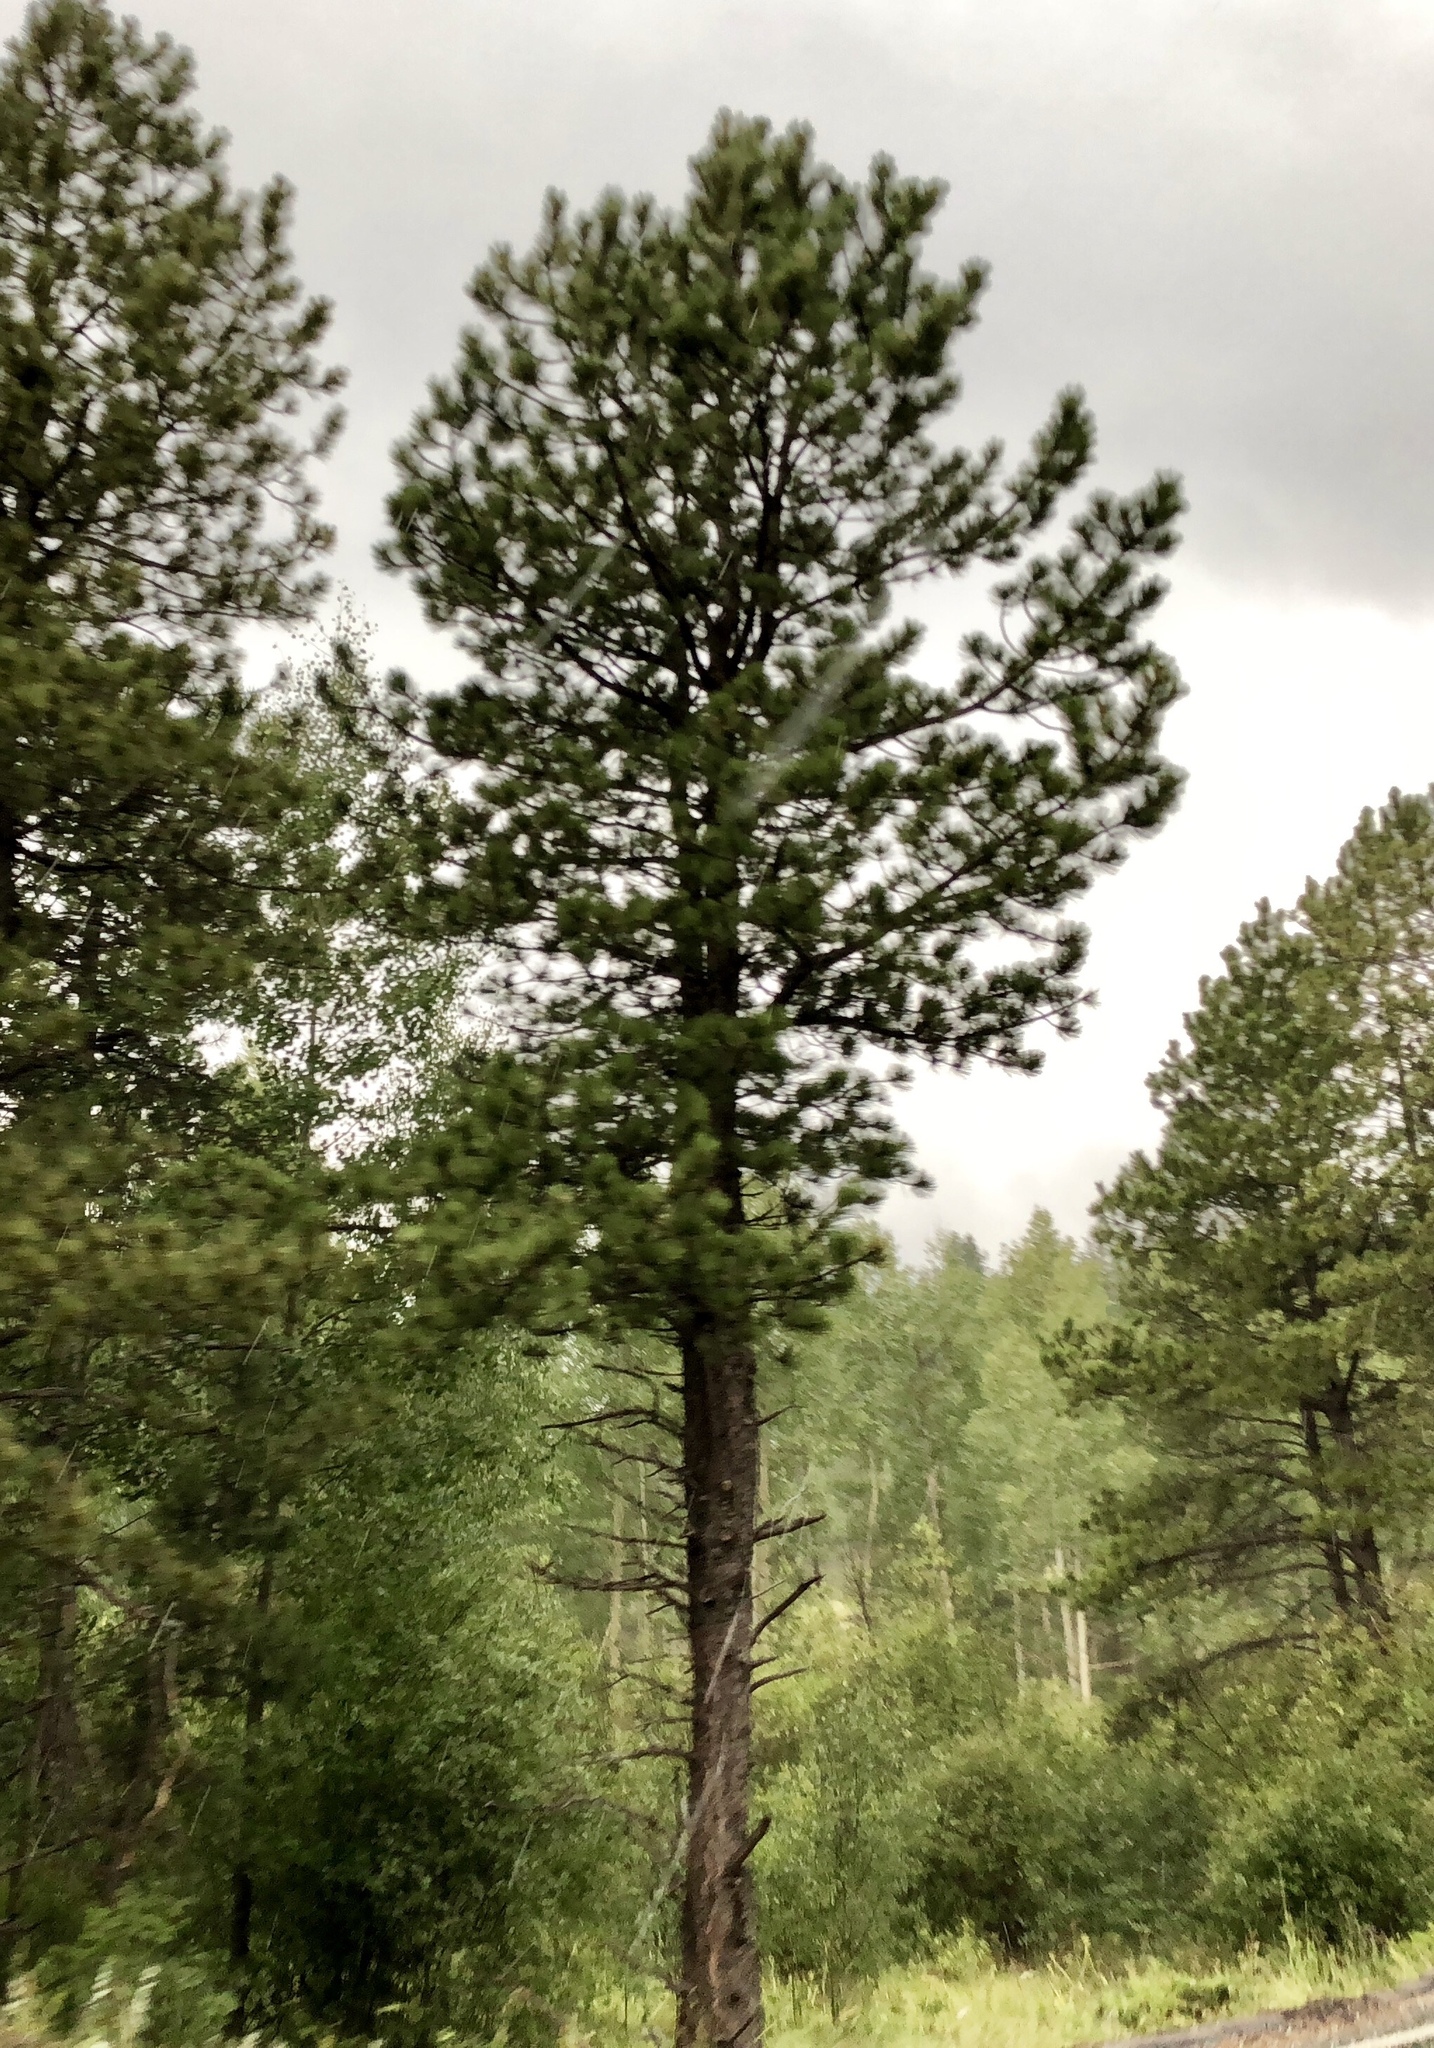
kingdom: Plantae
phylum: Tracheophyta
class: Pinopsida
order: Pinales
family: Pinaceae
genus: Pinus
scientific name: Pinus ponderosa
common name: Western yellow-pine
